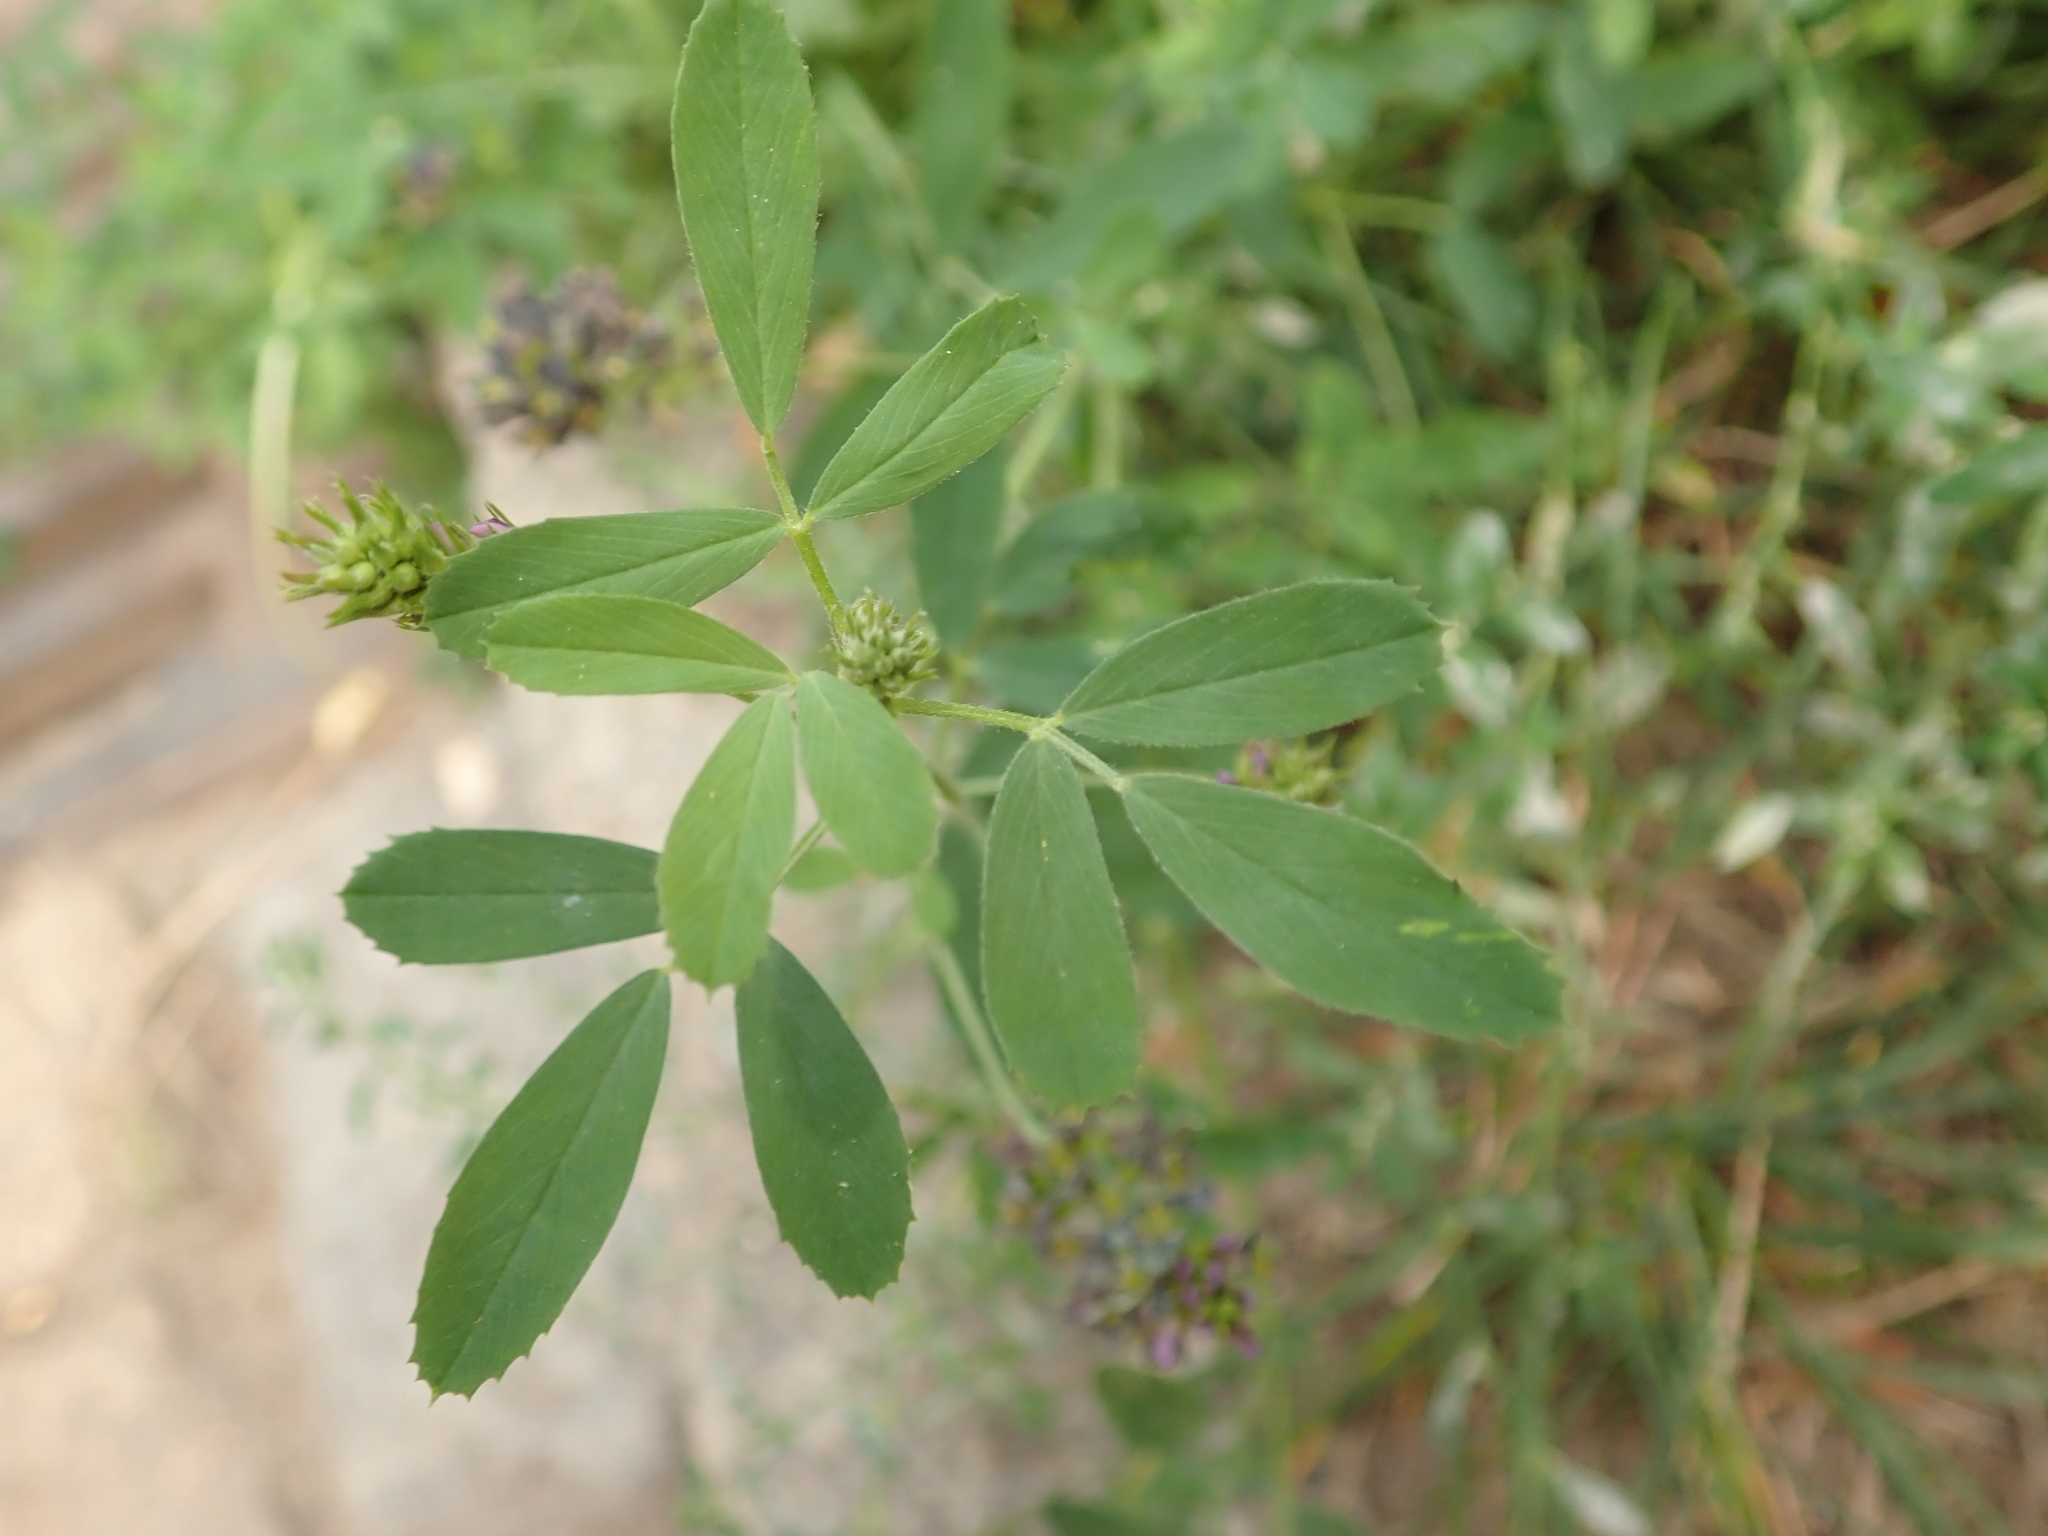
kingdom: Plantae
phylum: Tracheophyta
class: Magnoliopsida
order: Fabales
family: Fabaceae
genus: Medicago
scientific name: Medicago varia
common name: Sand lucerne
